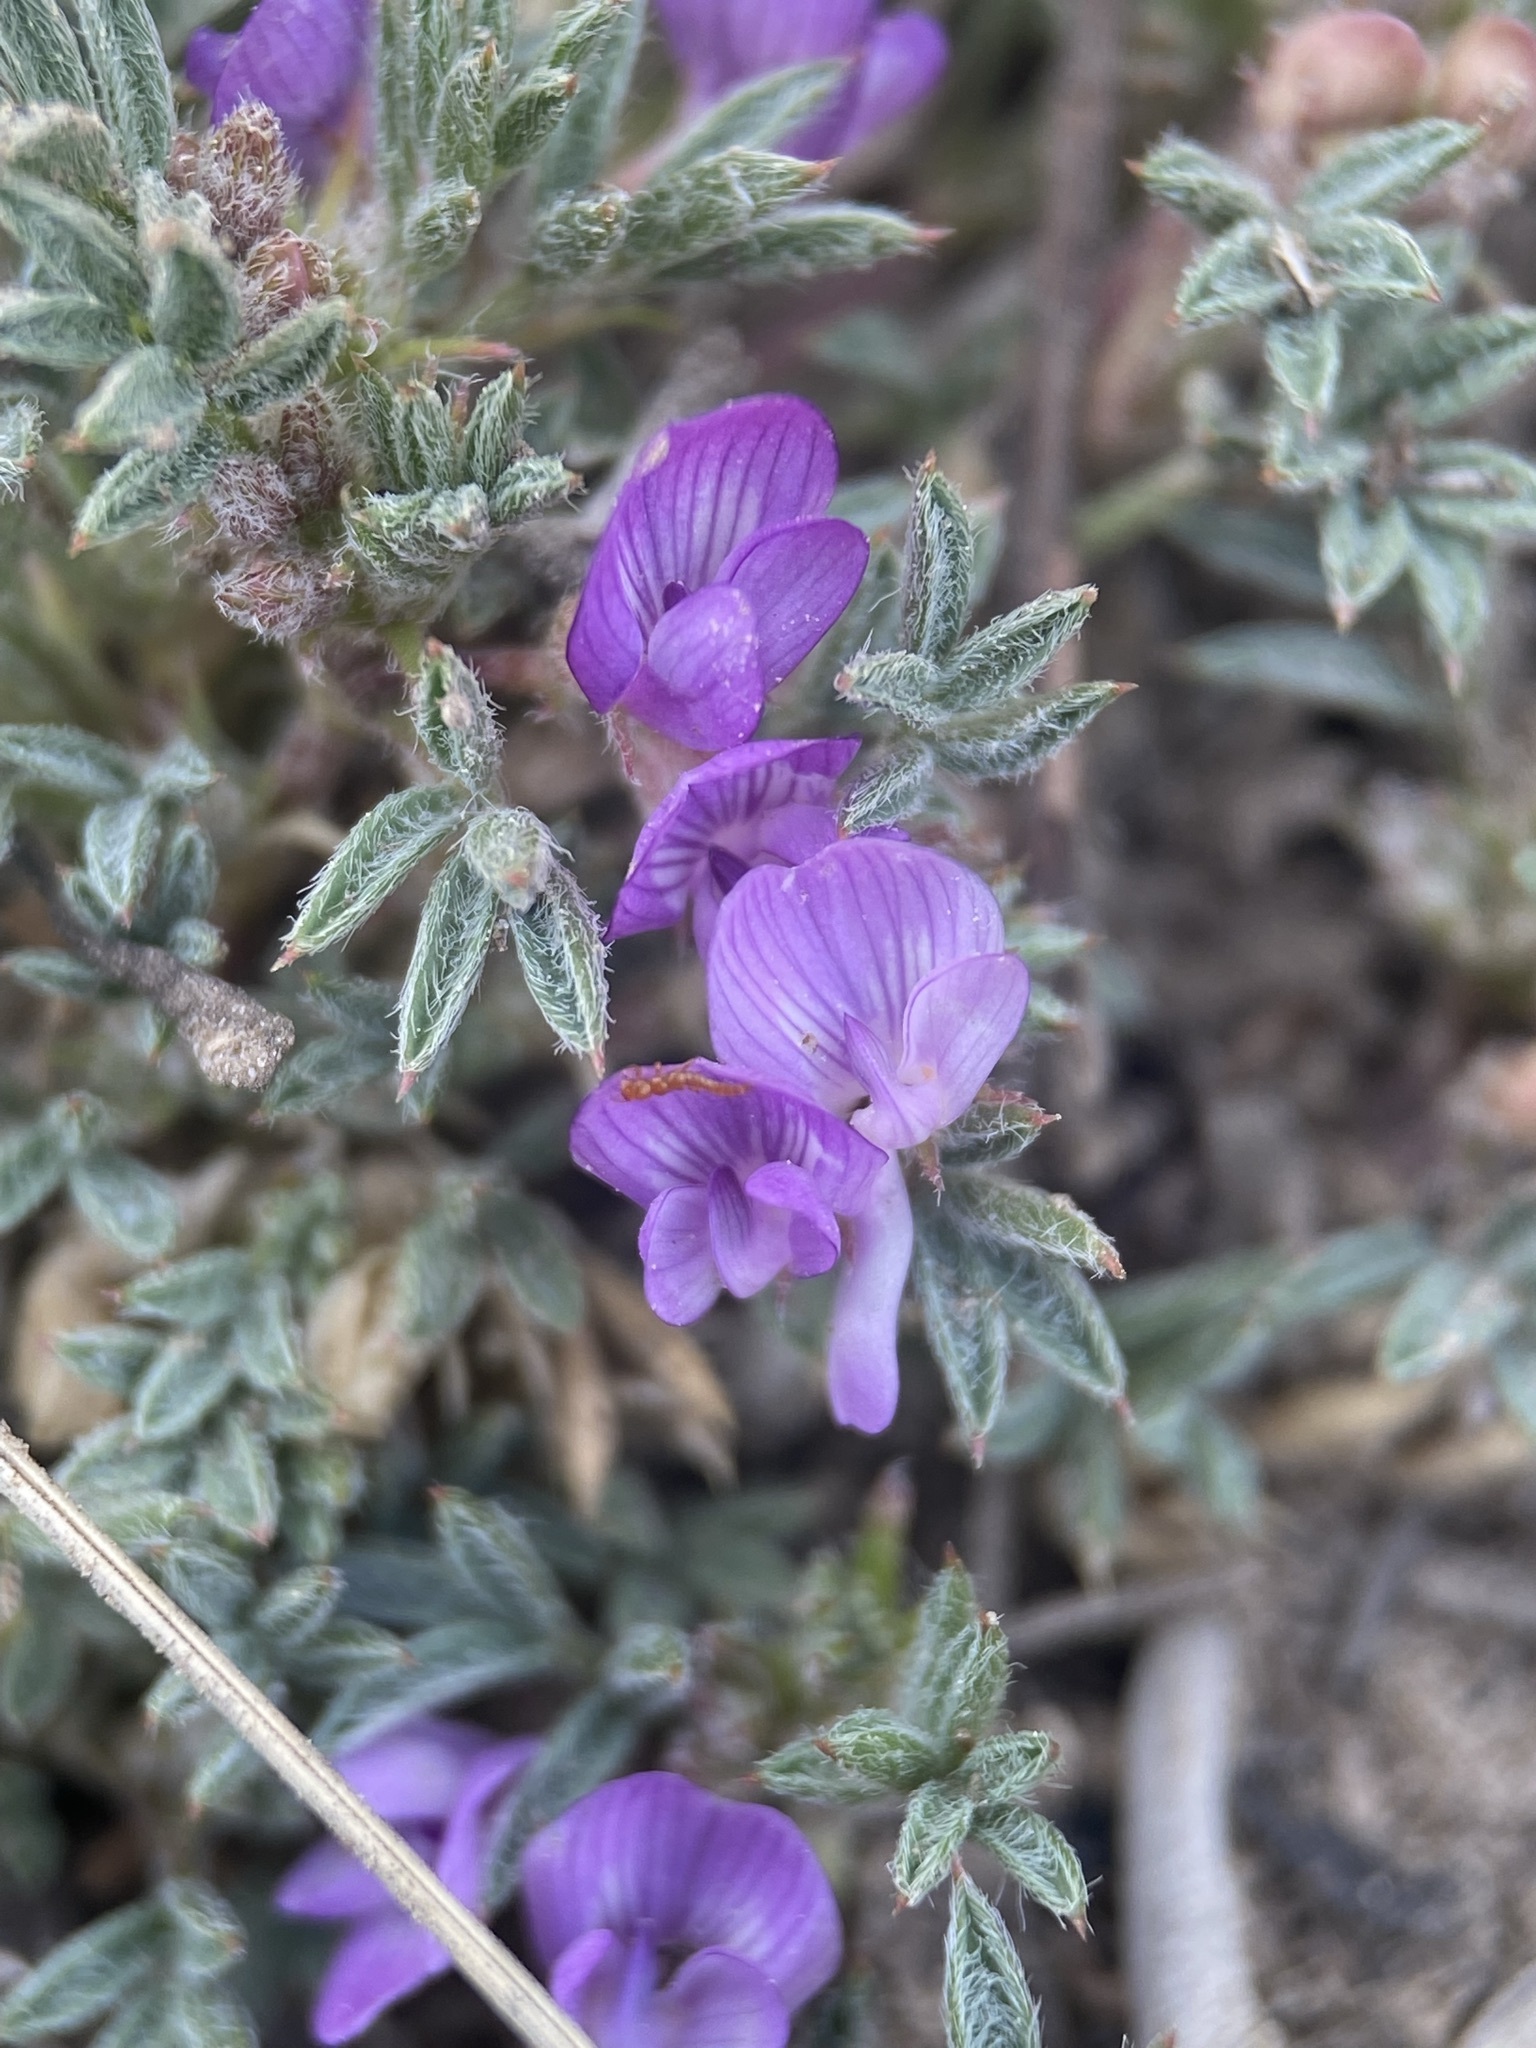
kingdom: Plantae
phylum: Tracheophyta
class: Magnoliopsida
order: Fabales
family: Fabaceae
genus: Astragalus
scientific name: Astragalus kentrophyta
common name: Prickly milk-vetch
